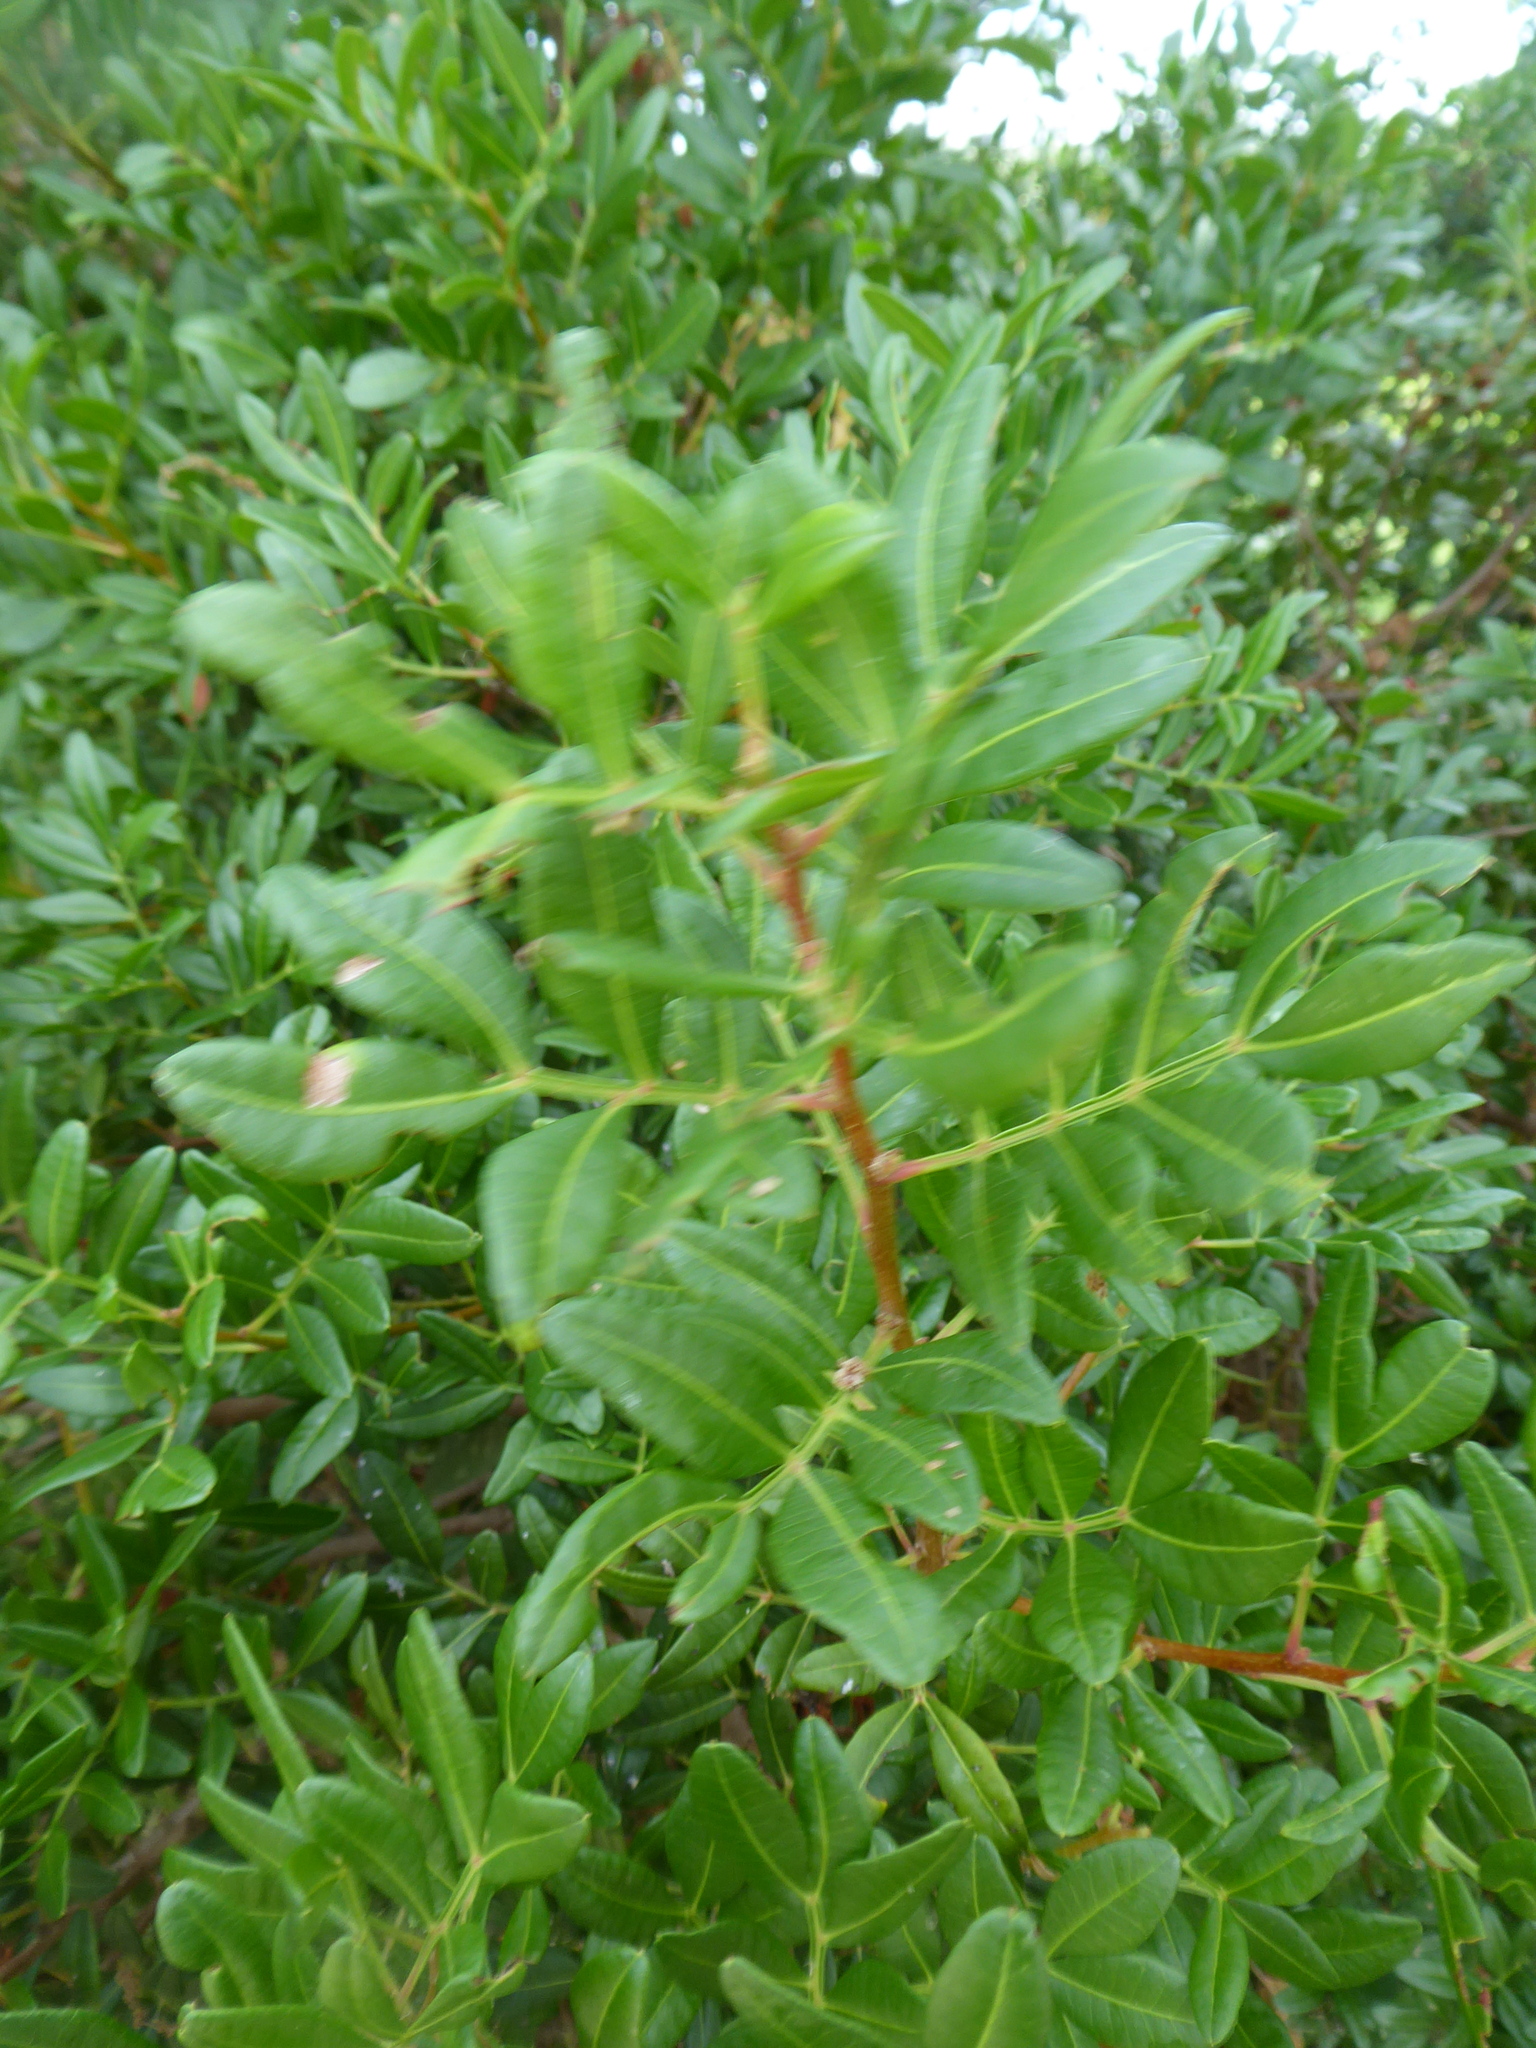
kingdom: Plantae
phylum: Tracheophyta
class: Magnoliopsida
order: Sapindales
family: Anacardiaceae
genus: Pistacia
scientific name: Pistacia lentiscus
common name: Lentisk
